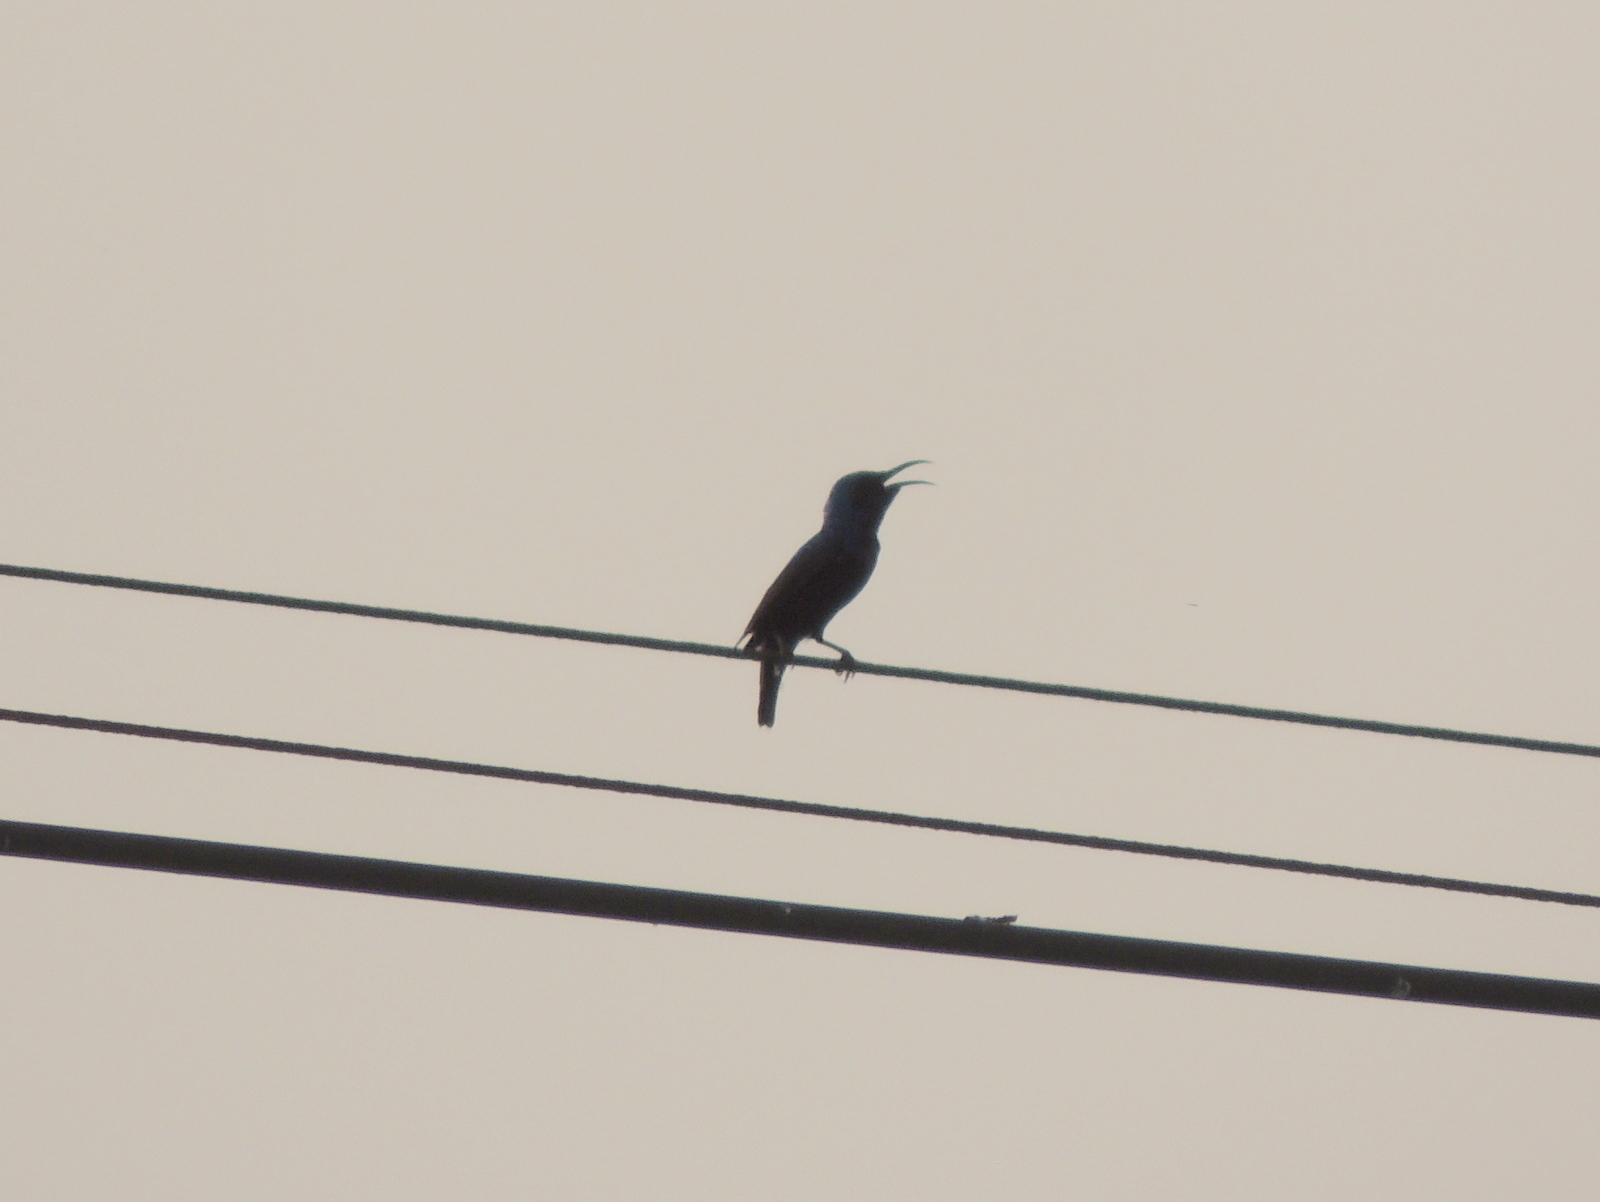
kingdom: Animalia
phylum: Chordata
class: Aves
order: Passeriformes
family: Nectariniidae
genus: Cinnyris
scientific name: Cinnyris asiaticus
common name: Purple sunbird
